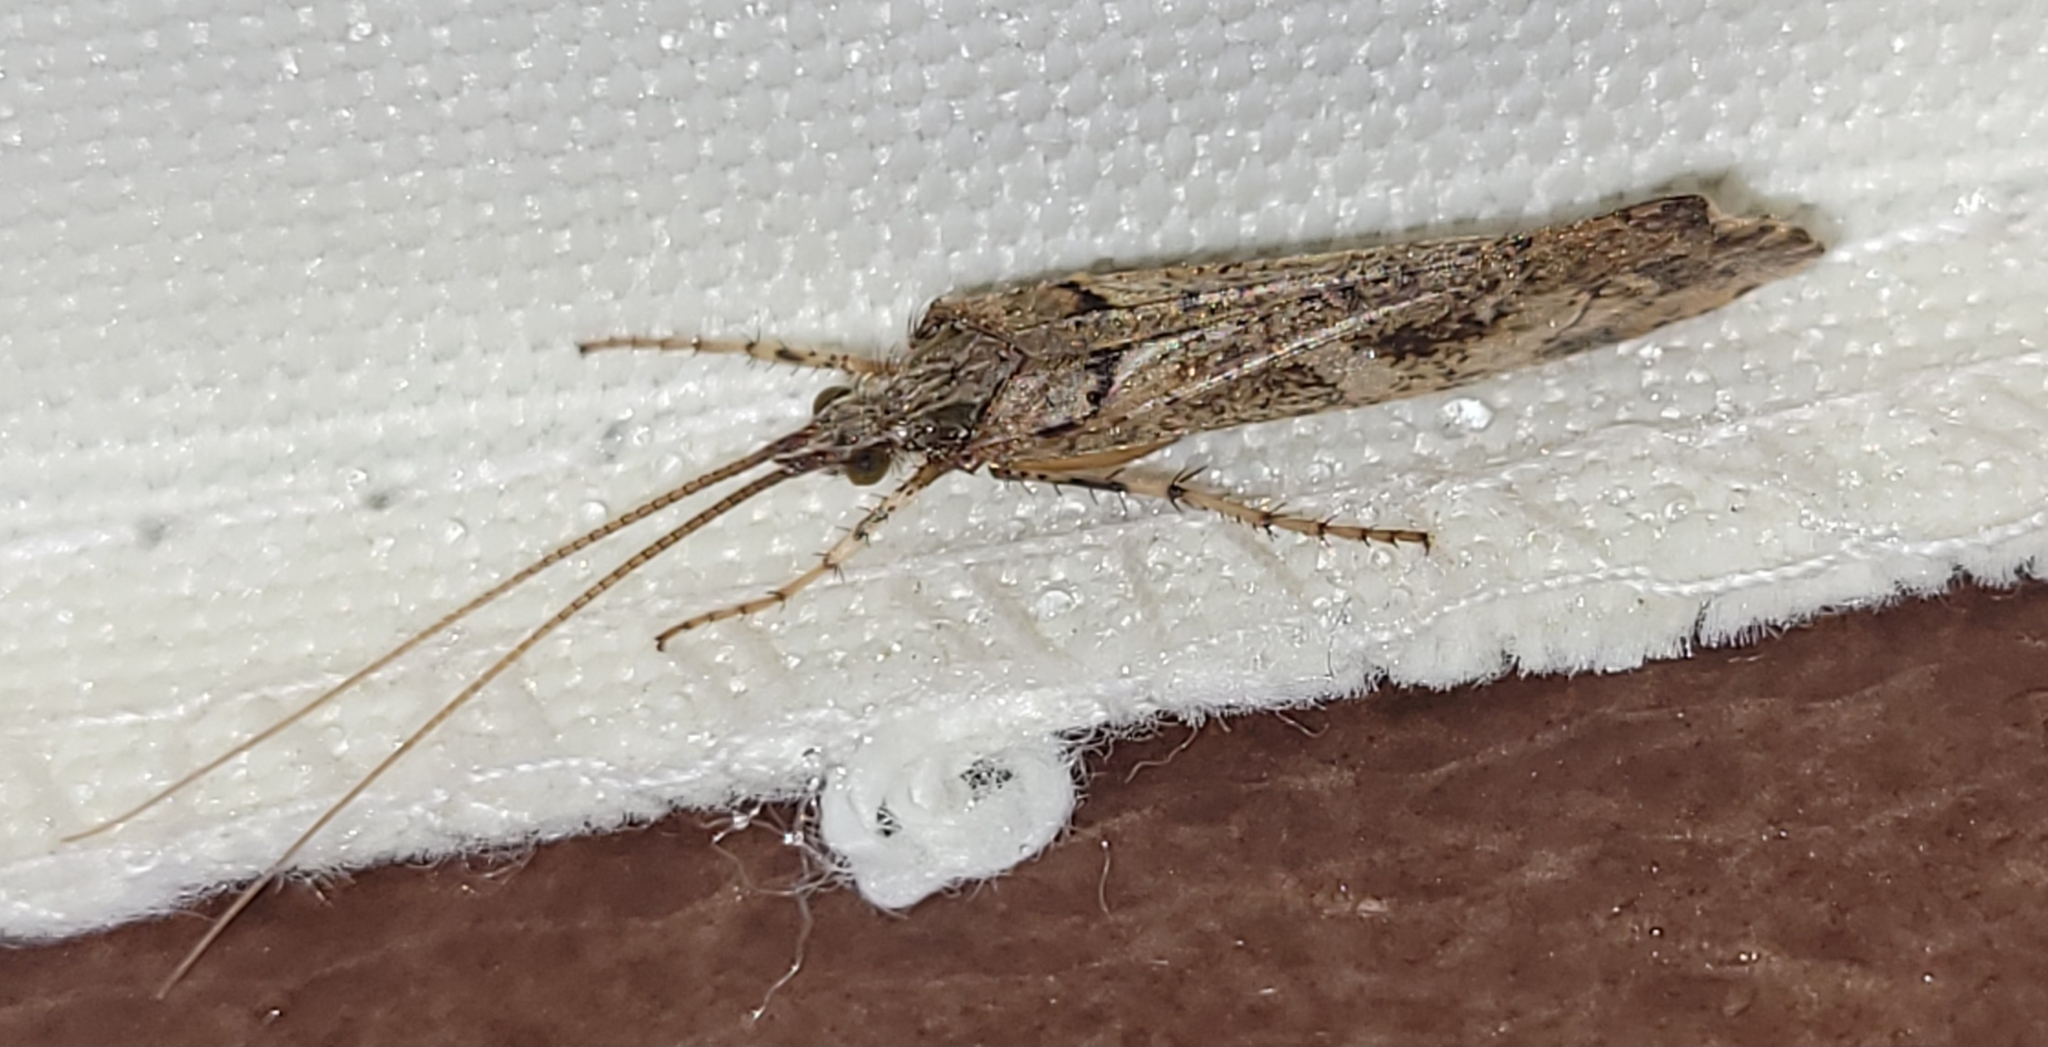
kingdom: Animalia
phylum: Arthropoda
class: Insecta
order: Trichoptera
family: Limnephilidae
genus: Glyphotaelius
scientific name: Glyphotaelius pellucidus
